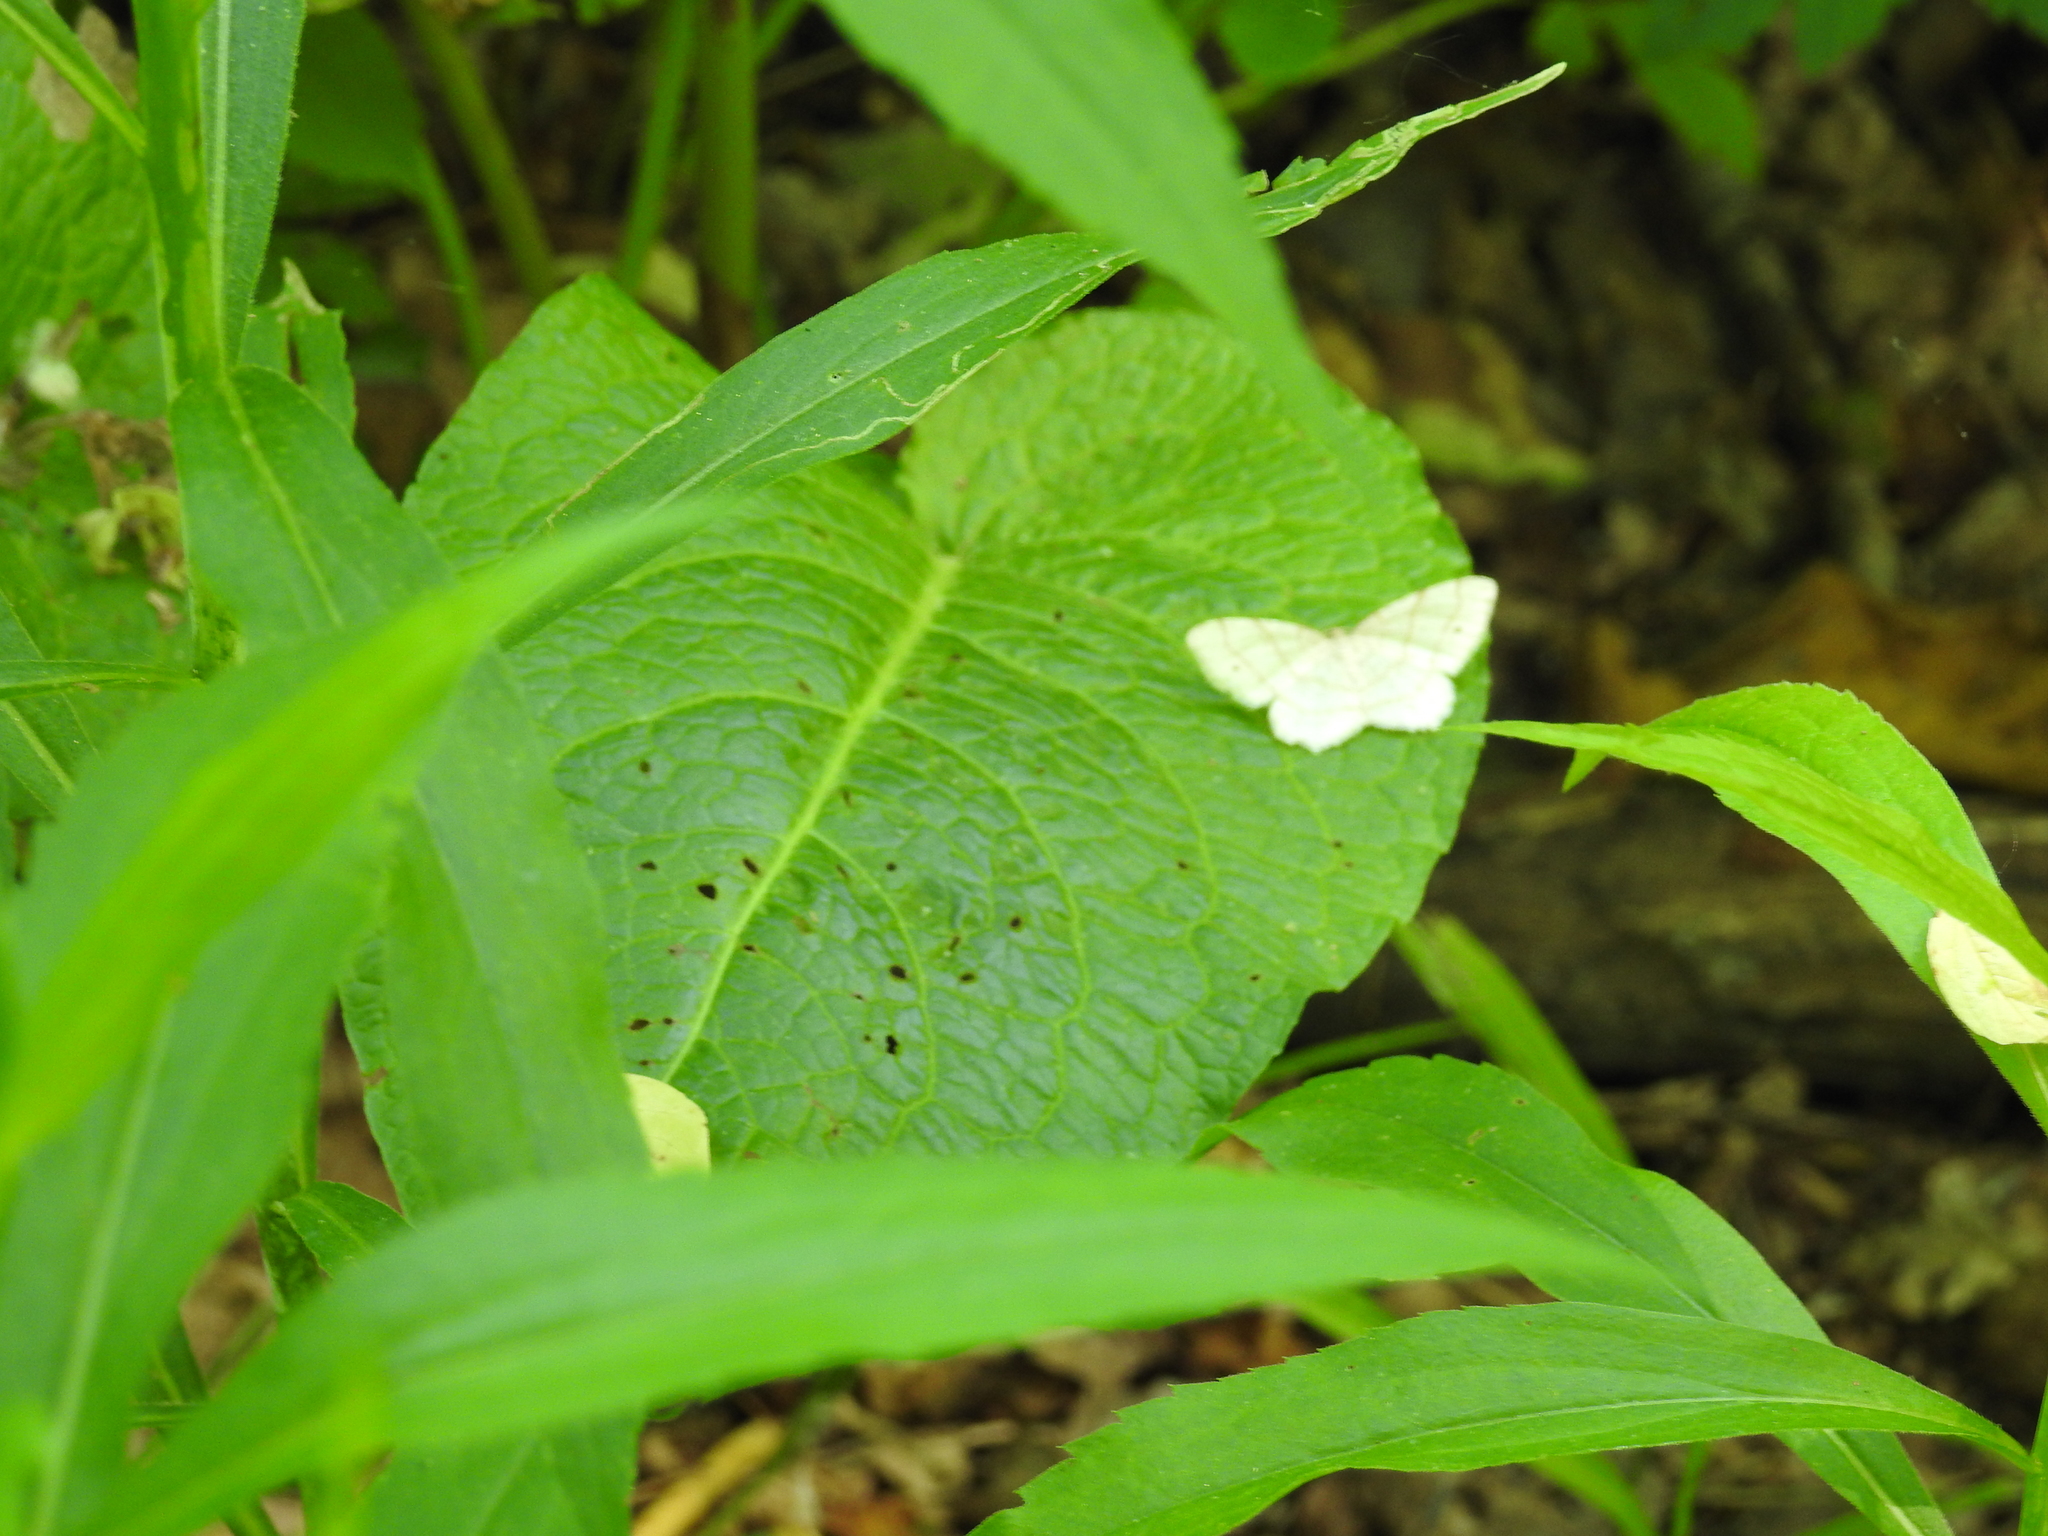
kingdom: Animalia
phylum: Arthropoda
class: Insecta
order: Lepidoptera
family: Geometridae
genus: Trigrammia
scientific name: Trigrammia quadrinotaria
